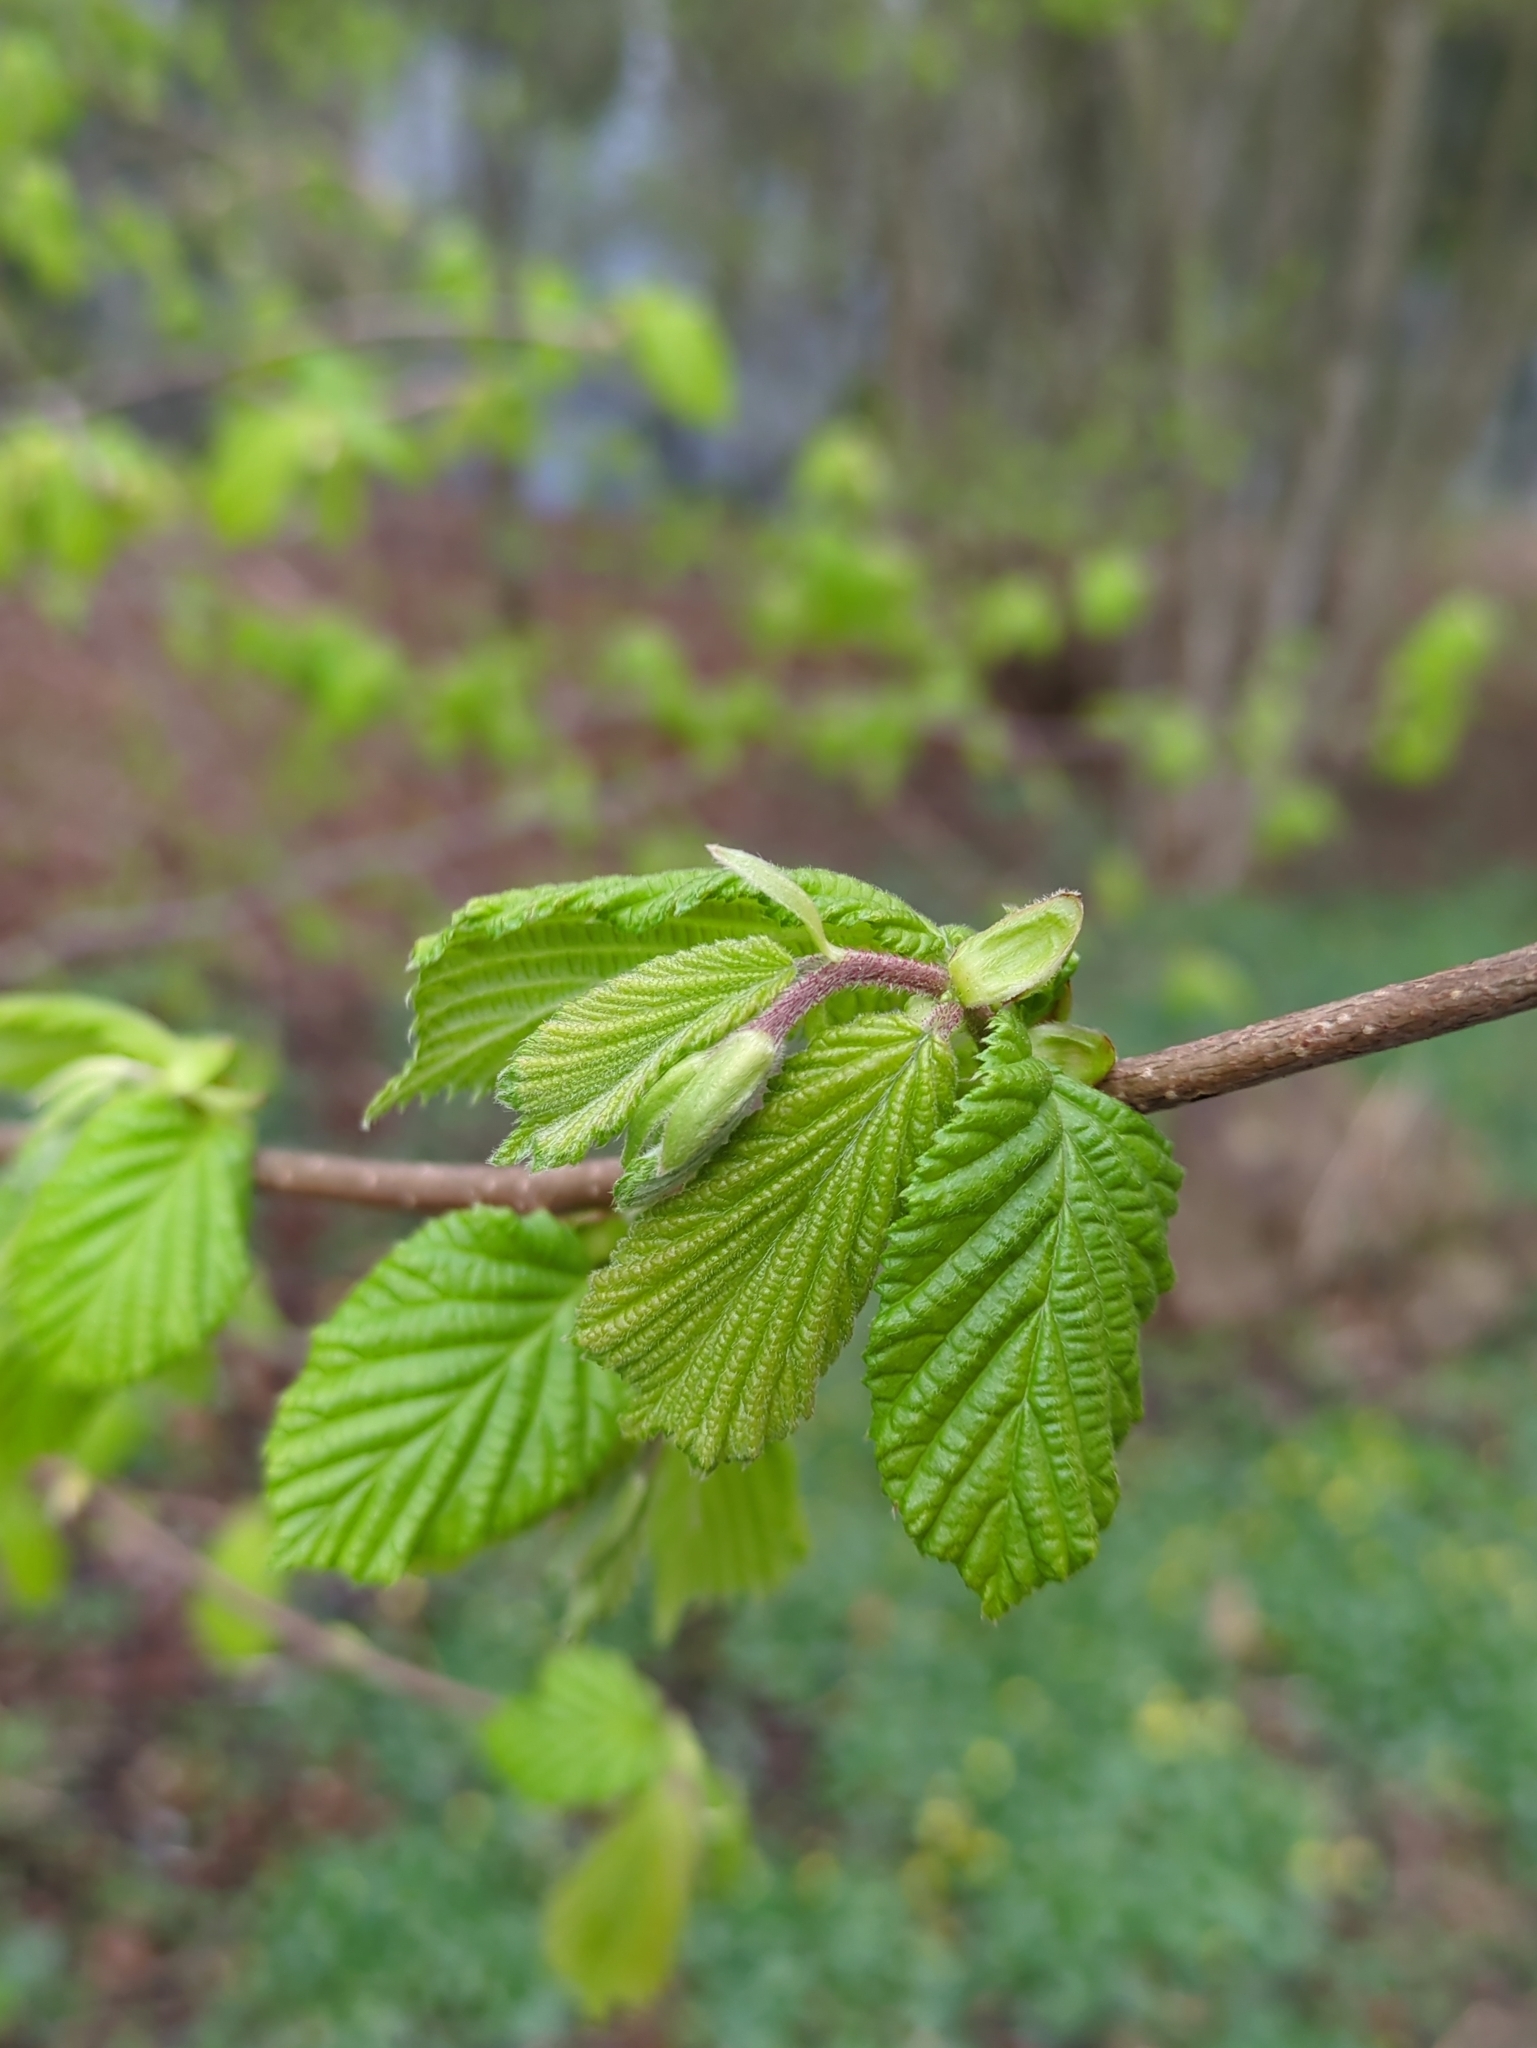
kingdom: Plantae
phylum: Tracheophyta
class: Magnoliopsida
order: Fagales
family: Betulaceae
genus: Corylus
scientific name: Corylus avellana
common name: European hazel
